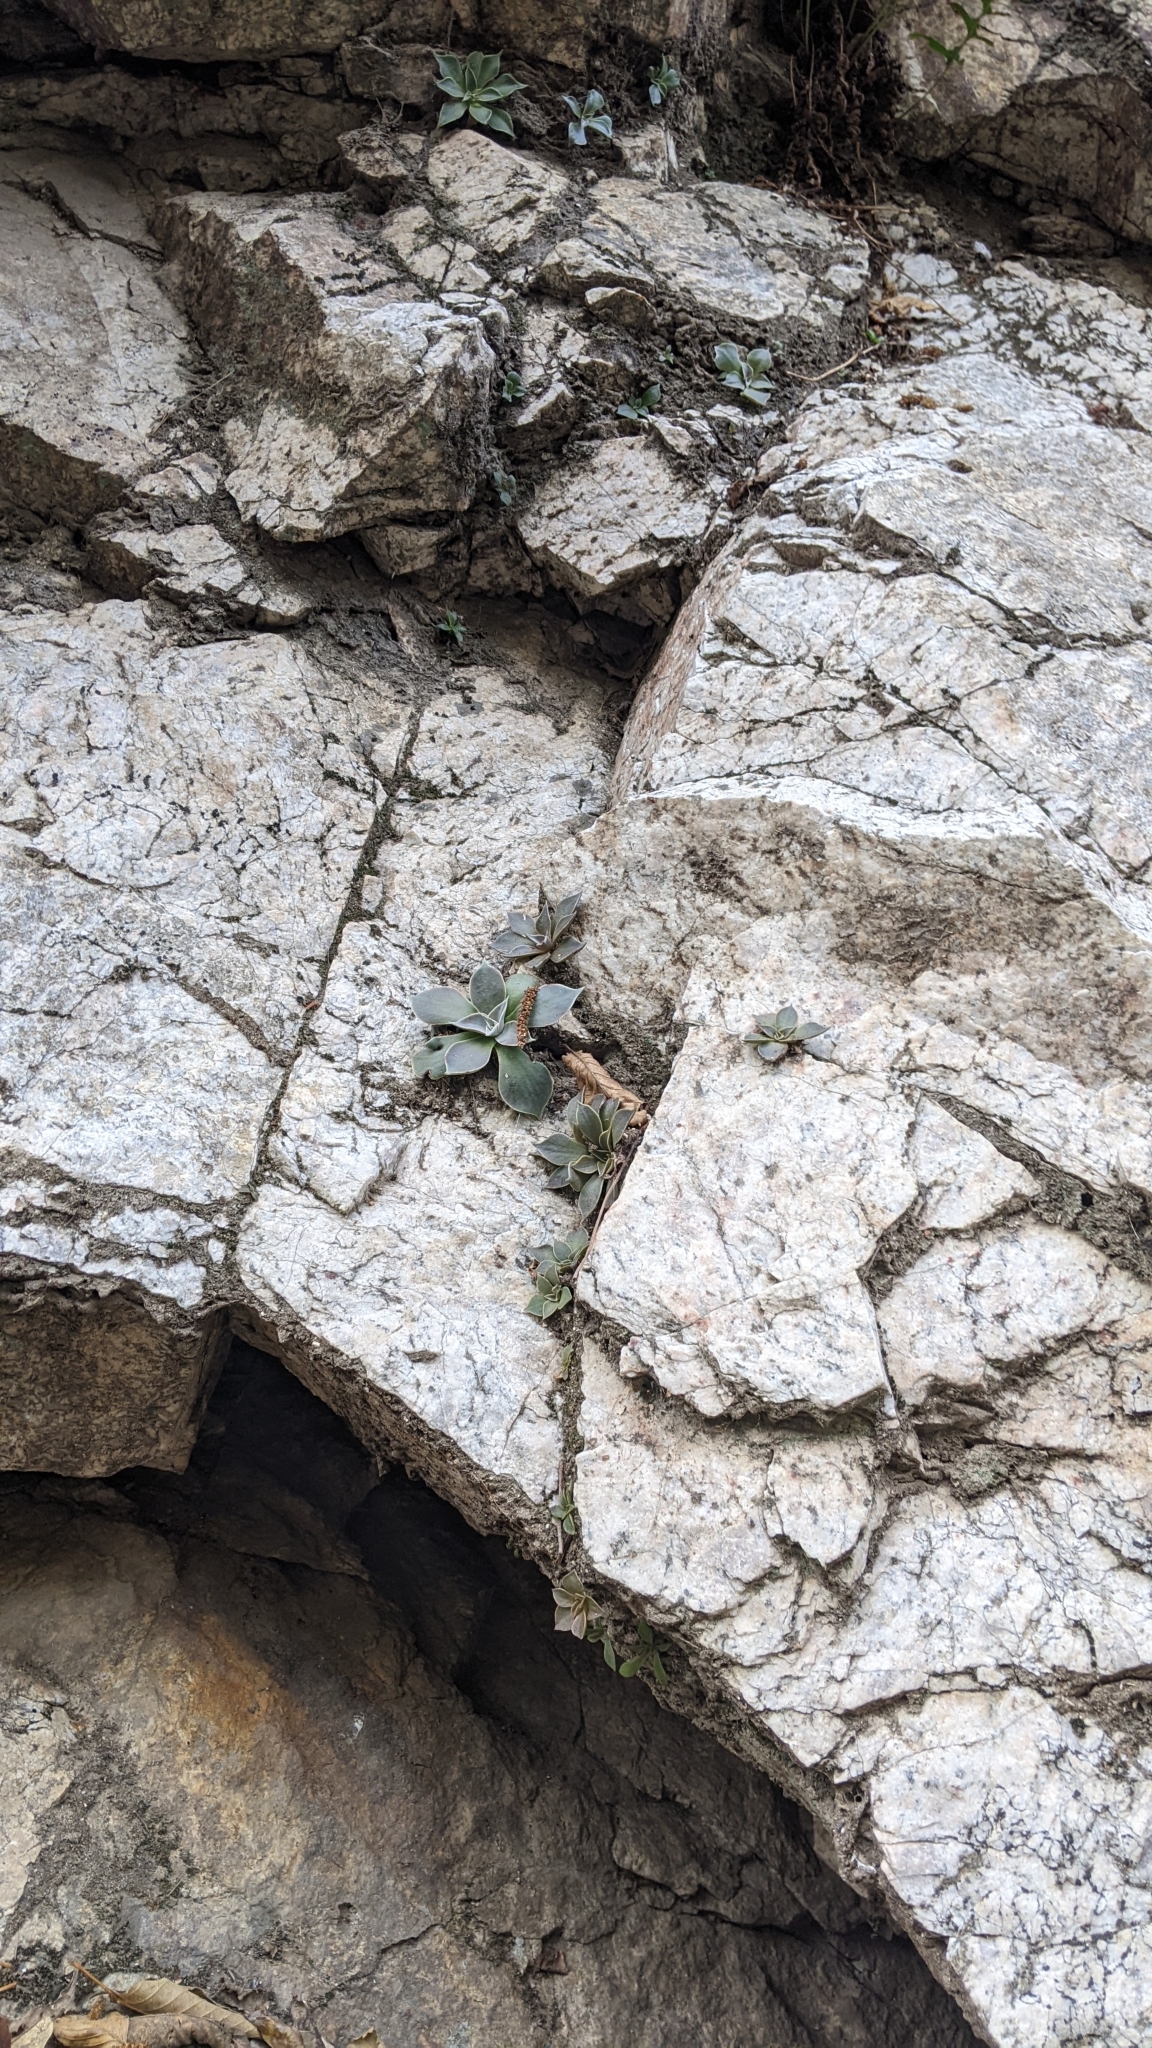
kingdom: Plantae
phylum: Tracheophyta
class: Magnoliopsida
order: Saxifragales
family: Crassulaceae
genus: Dudleya
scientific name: Dudleya cymosa
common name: Canyon dudleya
